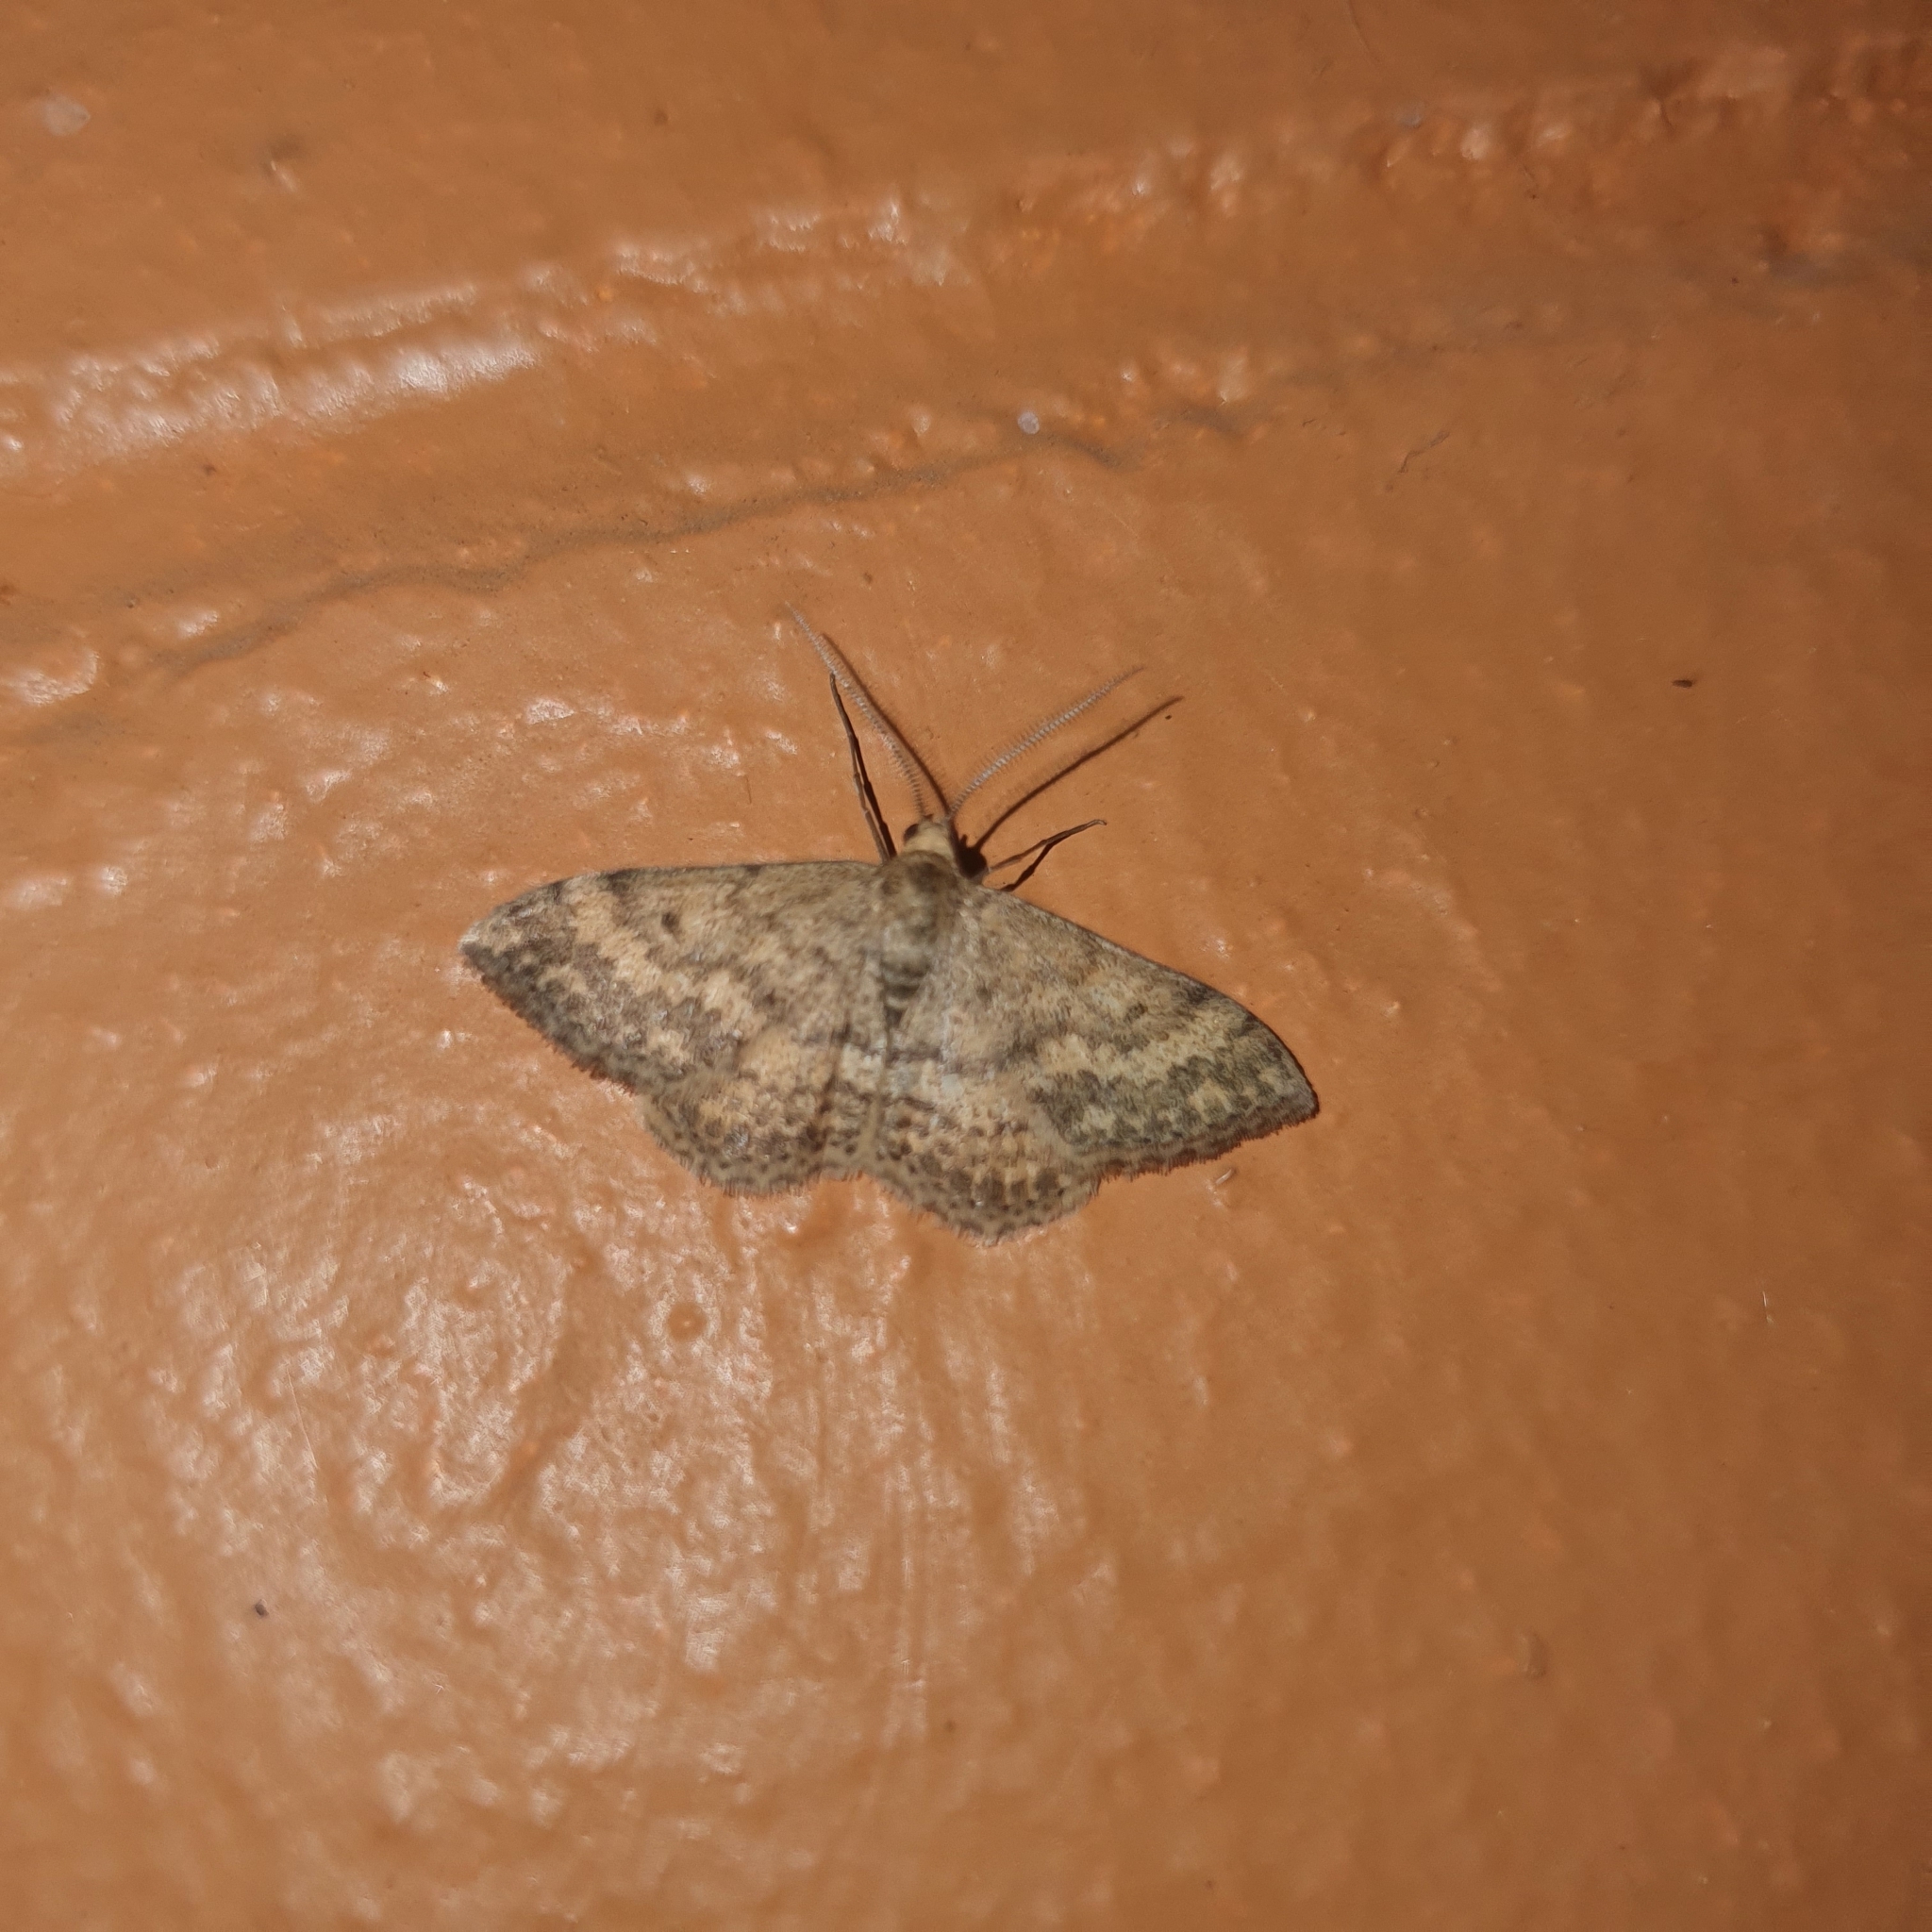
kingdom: Animalia
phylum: Arthropoda
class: Insecta
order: Lepidoptera
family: Geometridae
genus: Scopula
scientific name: Scopula rubraria
